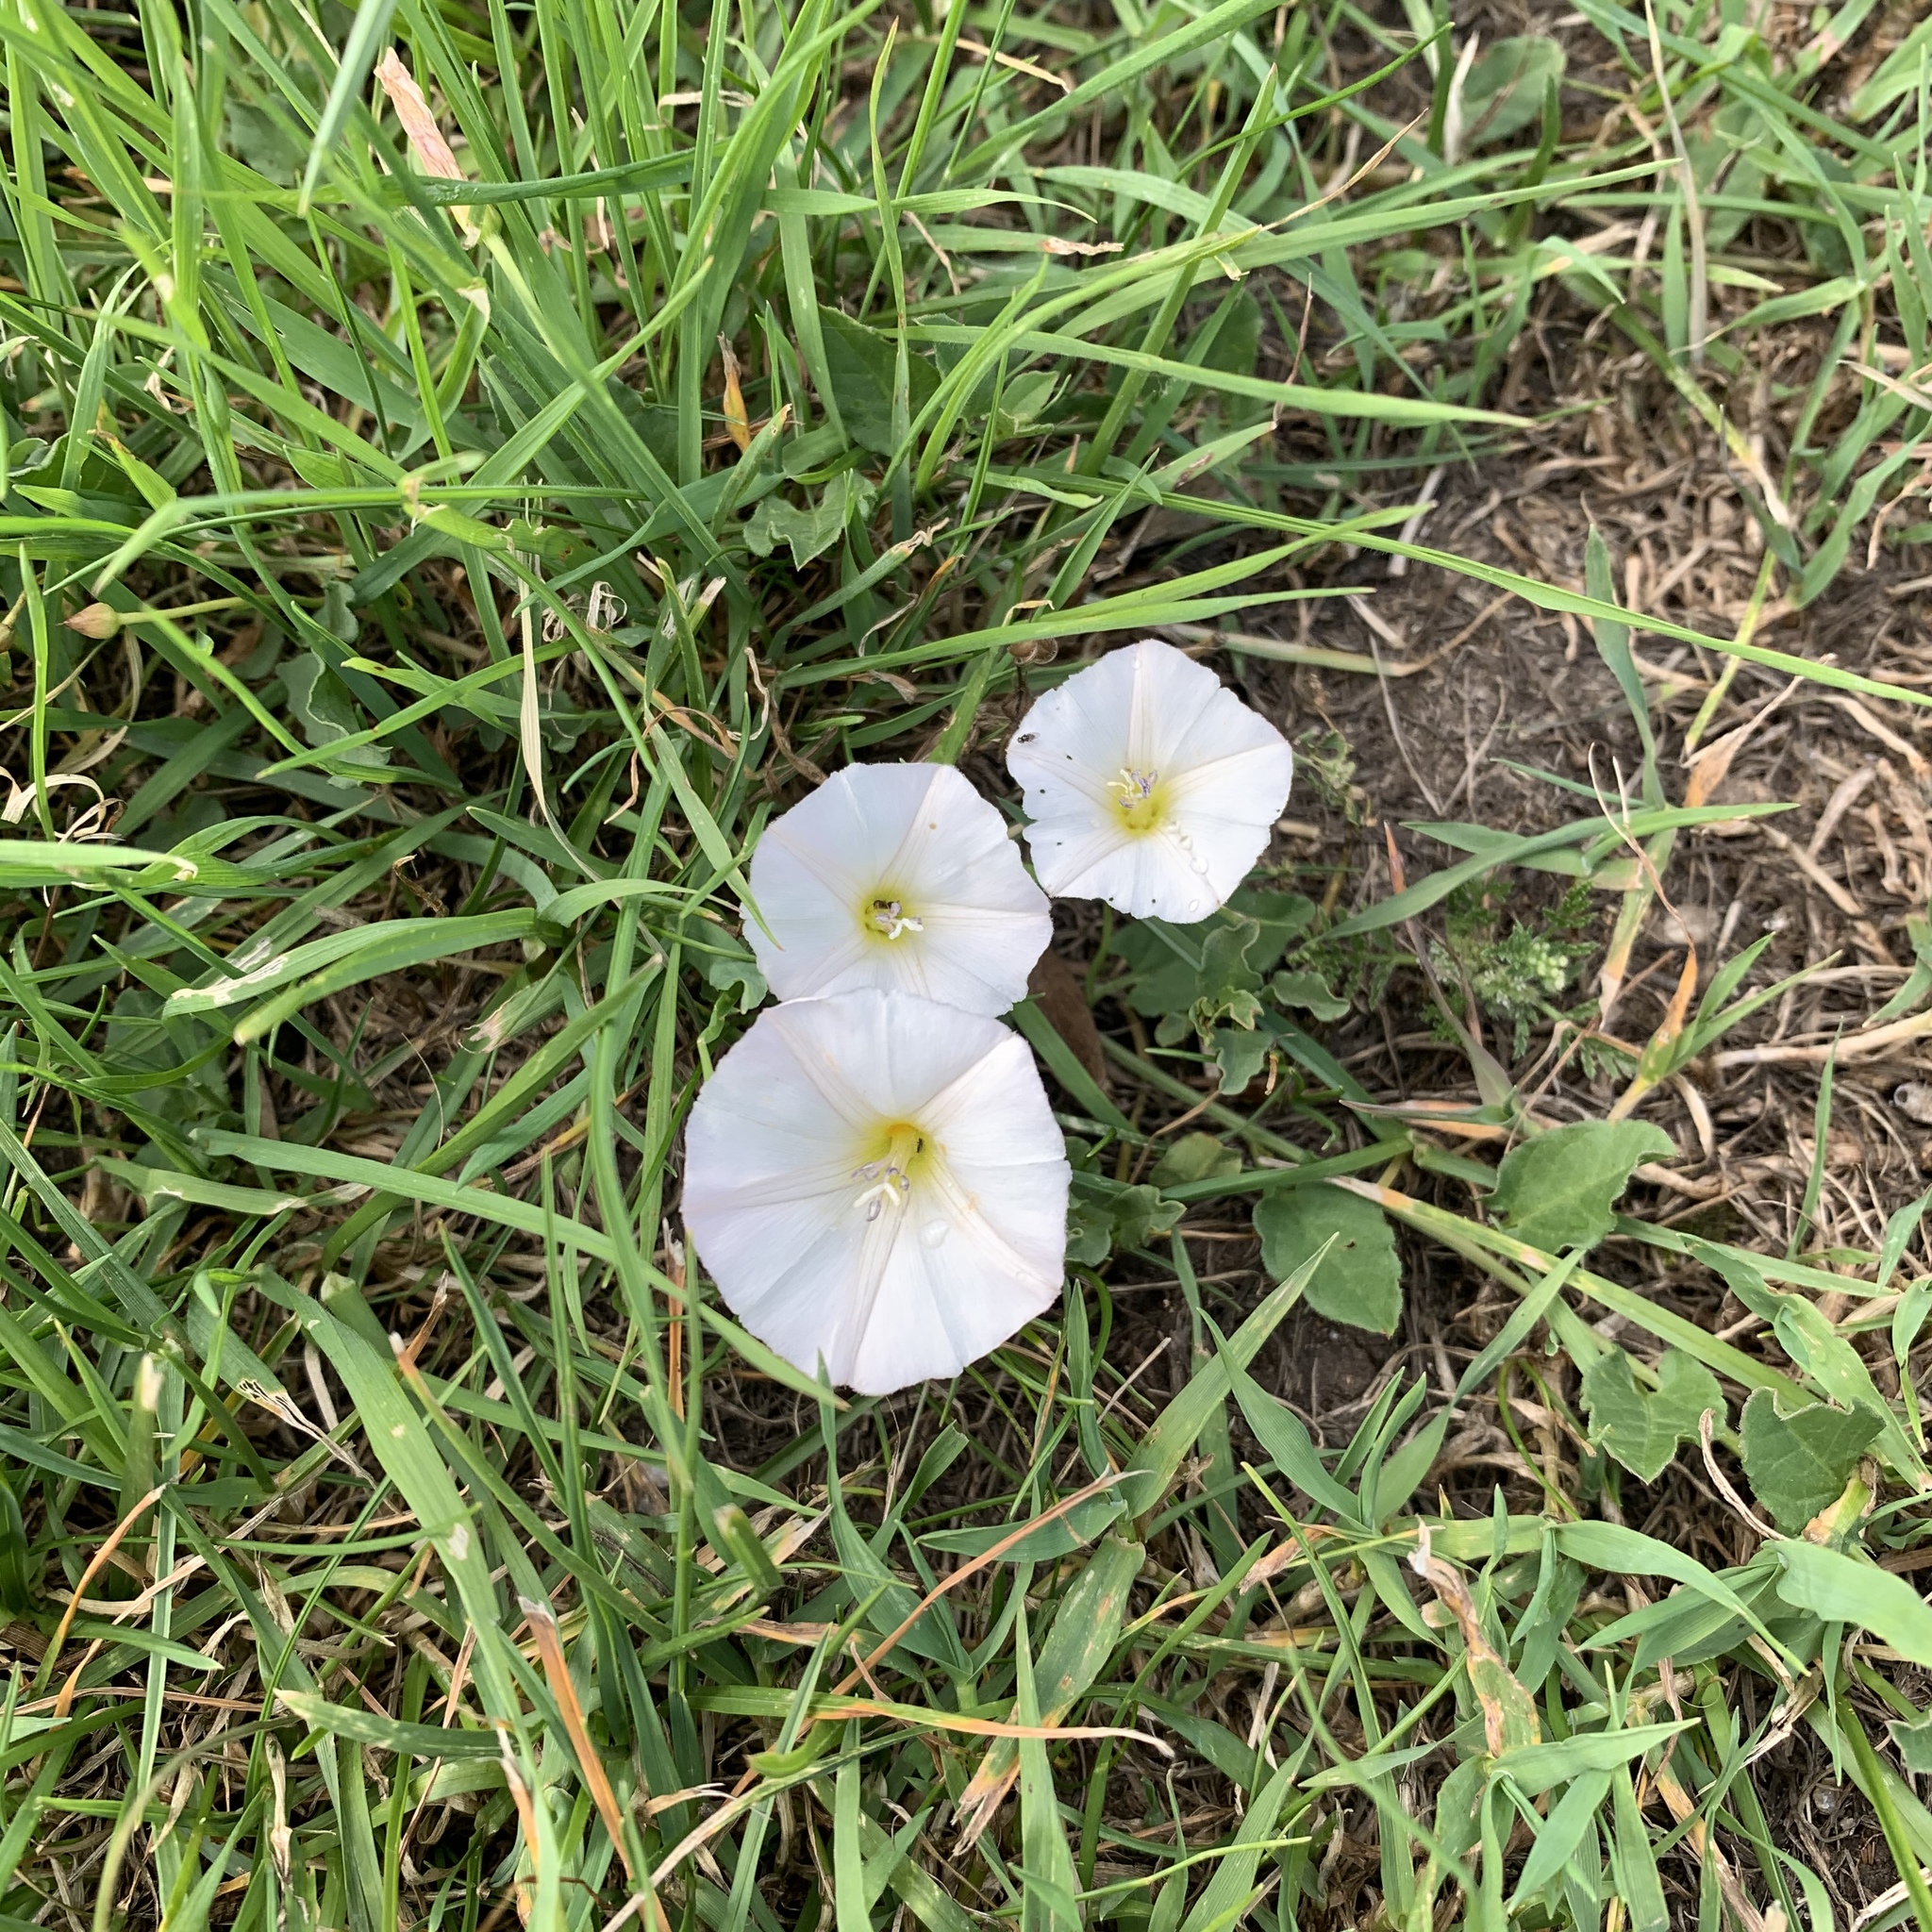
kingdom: Plantae
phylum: Tracheophyta
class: Magnoliopsida
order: Solanales
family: Convolvulaceae
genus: Convolvulus
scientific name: Convolvulus arvensis
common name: Field bindweed
